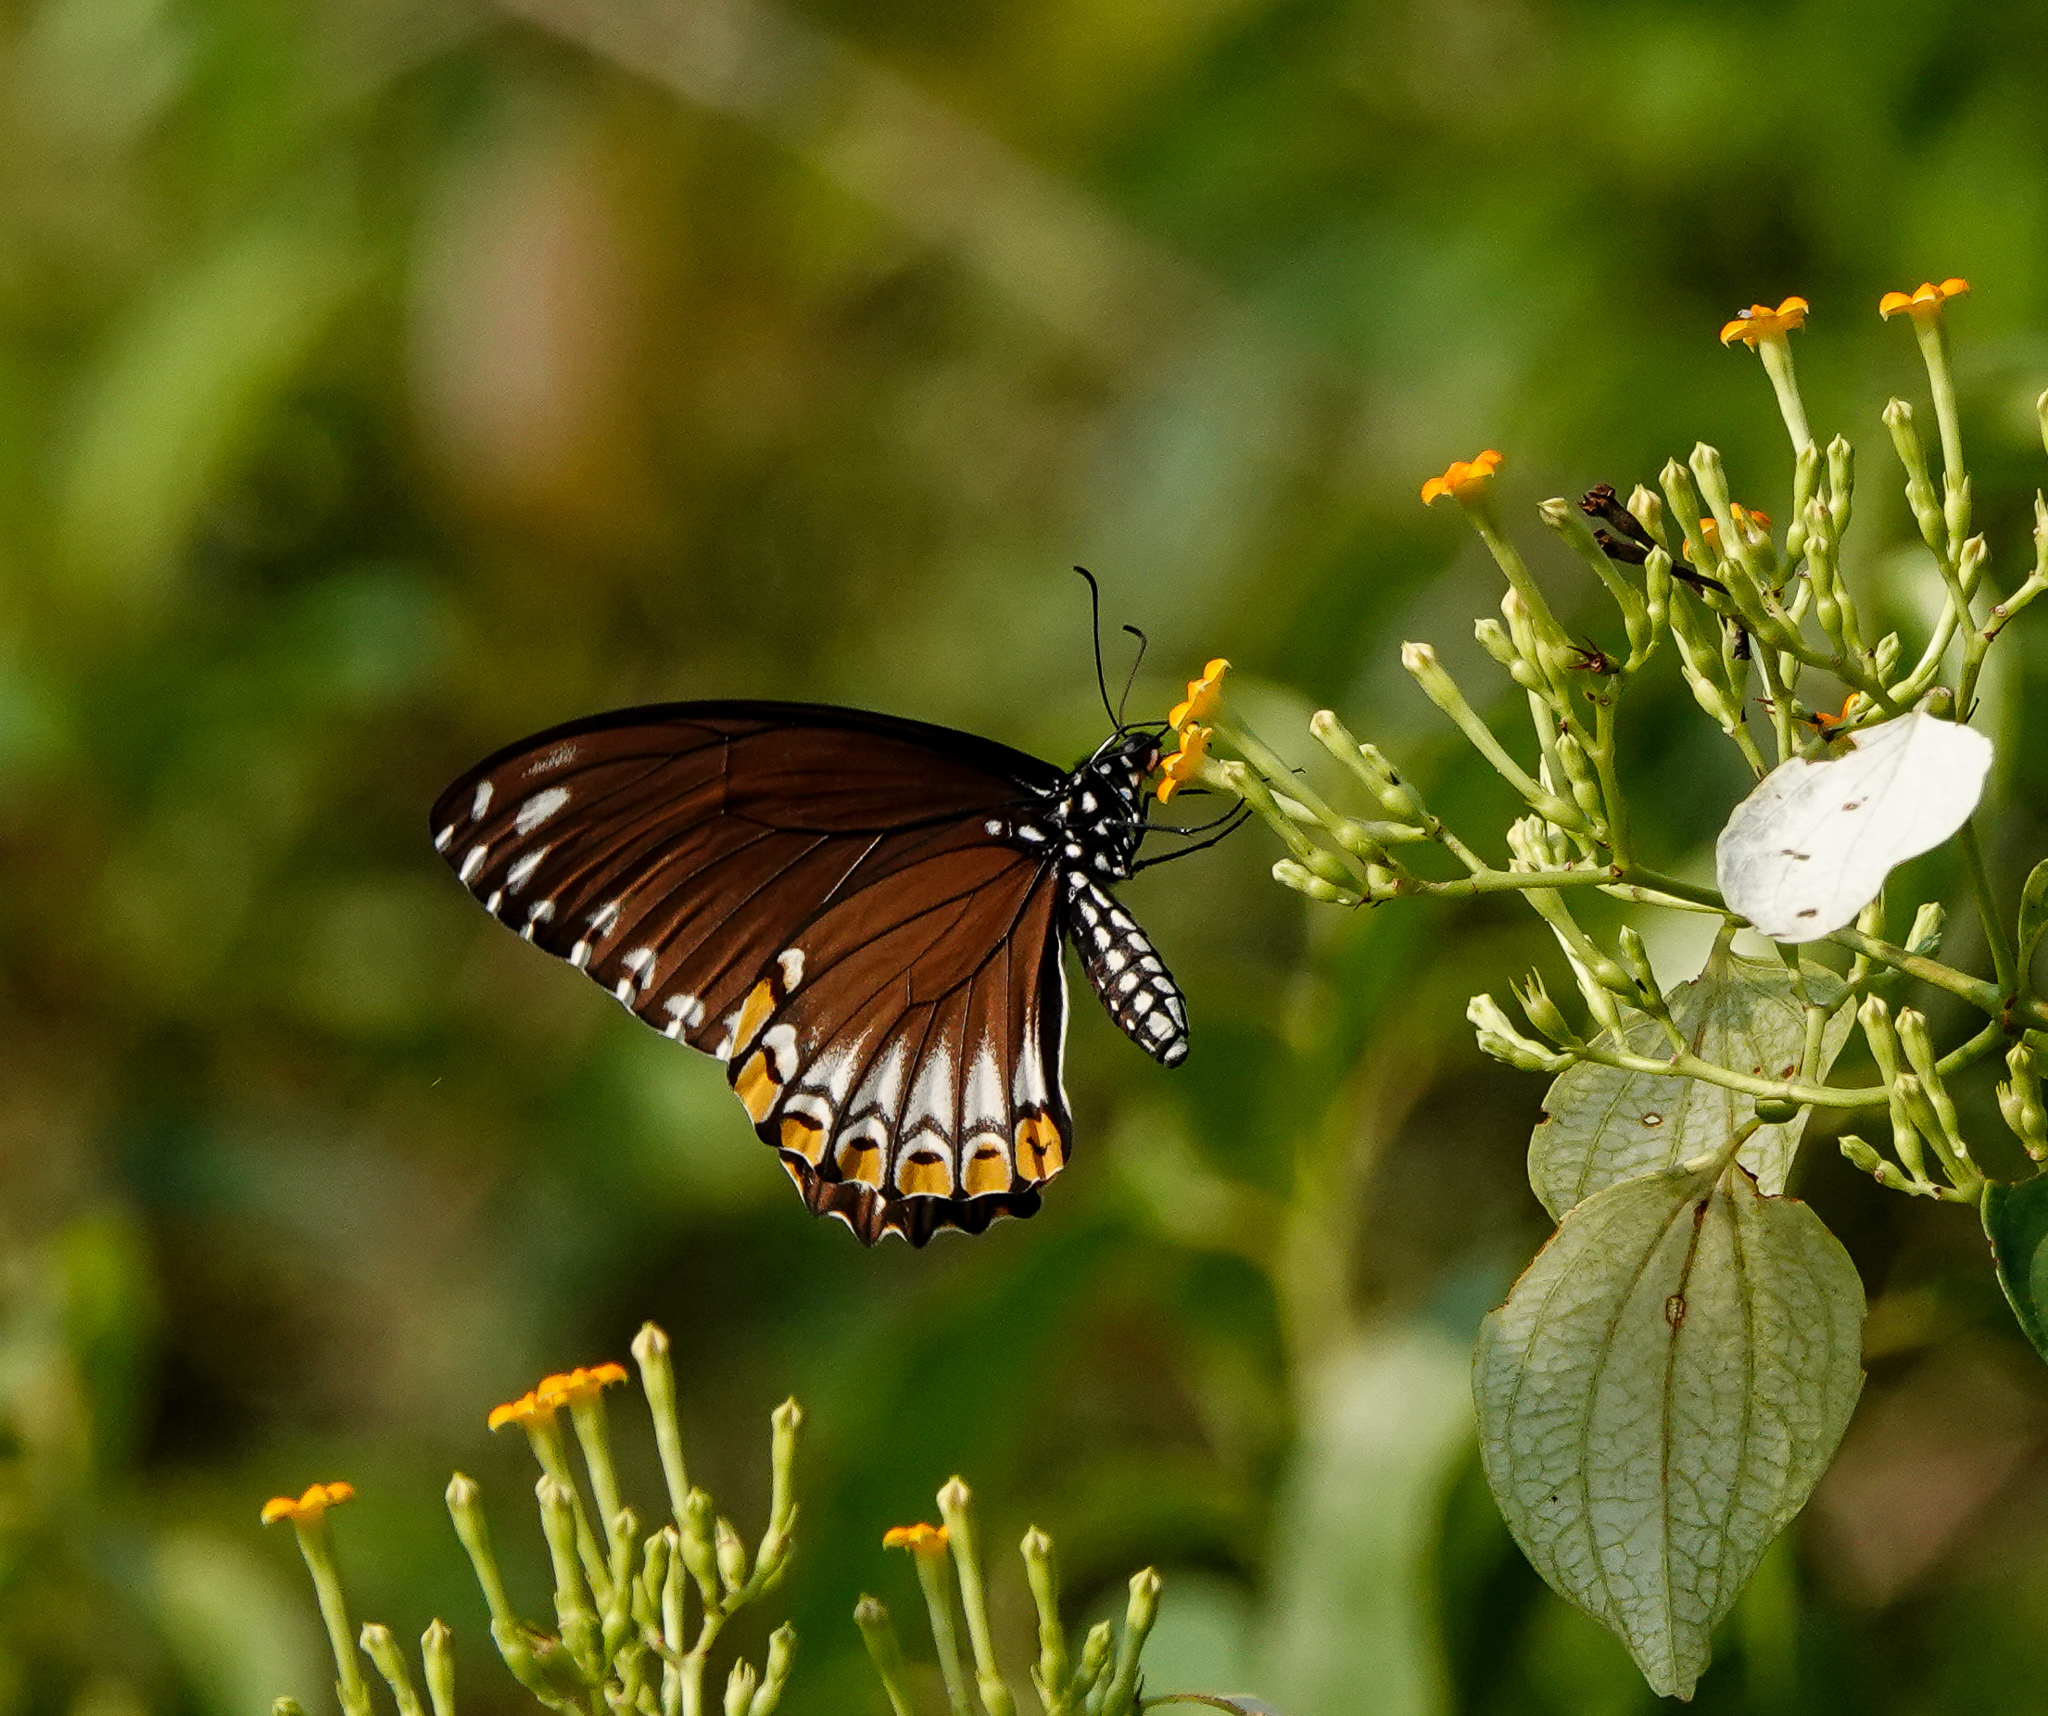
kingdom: Animalia
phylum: Arthropoda
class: Insecta
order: Lepidoptera
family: Papilionidae
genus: Chilasa
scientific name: Chilasa clytia
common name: Common mime
